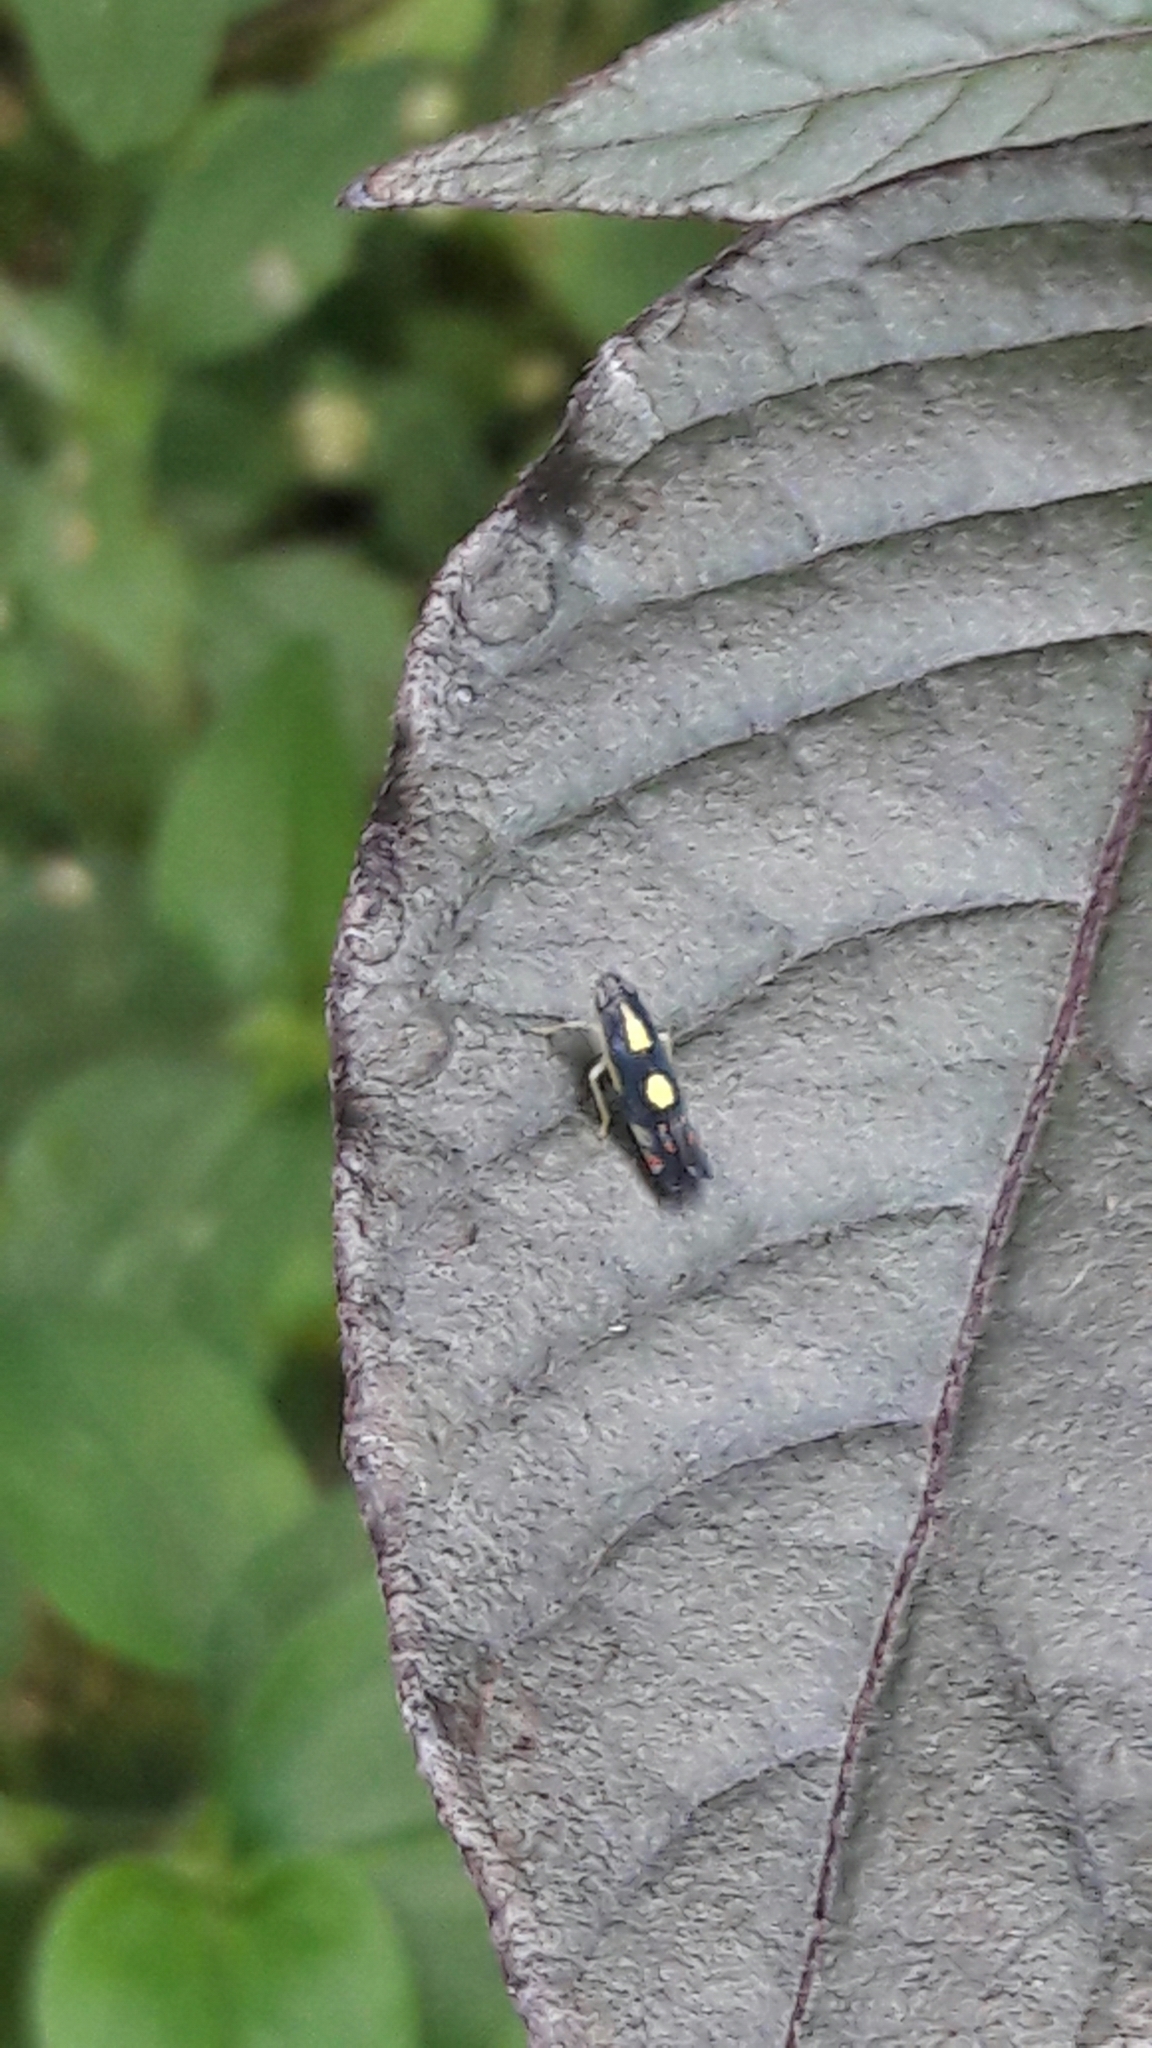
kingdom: Animalia
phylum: Arthropoda
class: Insecta
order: Hemiptera
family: Cicadellidae
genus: Diedrocephala
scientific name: Diedrocephala variegata
